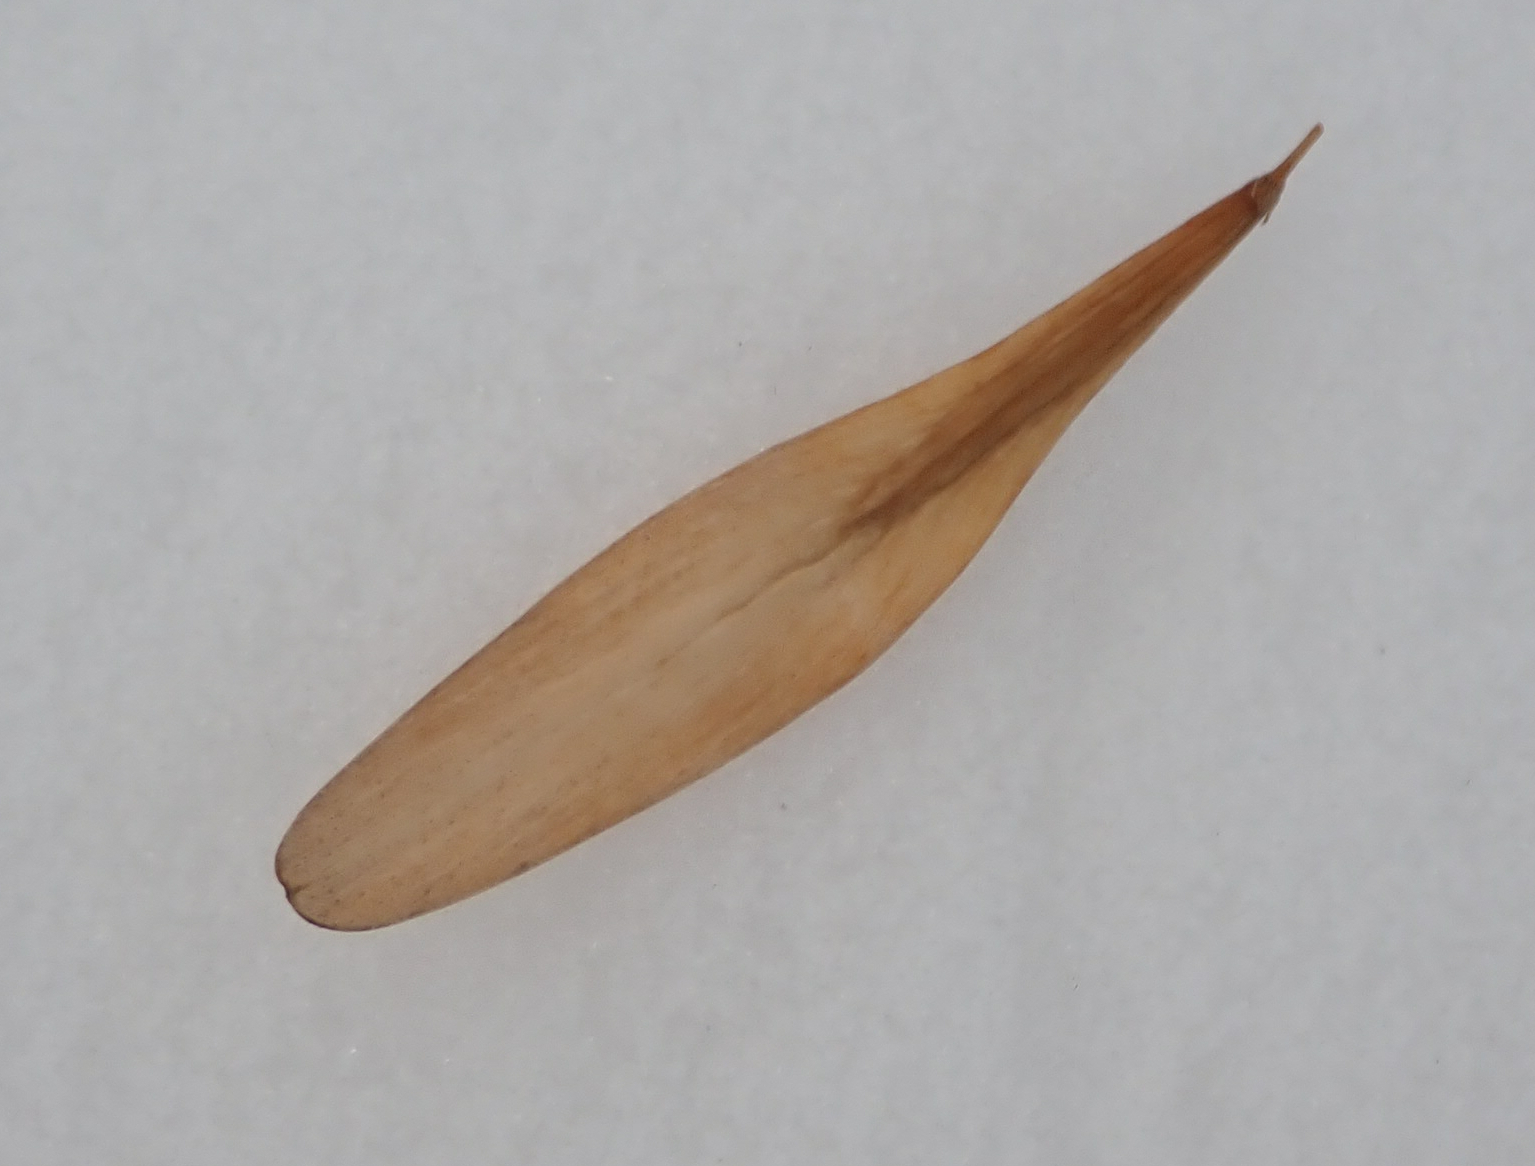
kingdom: Plantae
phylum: Tracheophyta
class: Magnoliopsida
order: Lamiales
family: Oleaceae
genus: Fraxinus
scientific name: Fraxinus pennsylvanica
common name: Green ash
